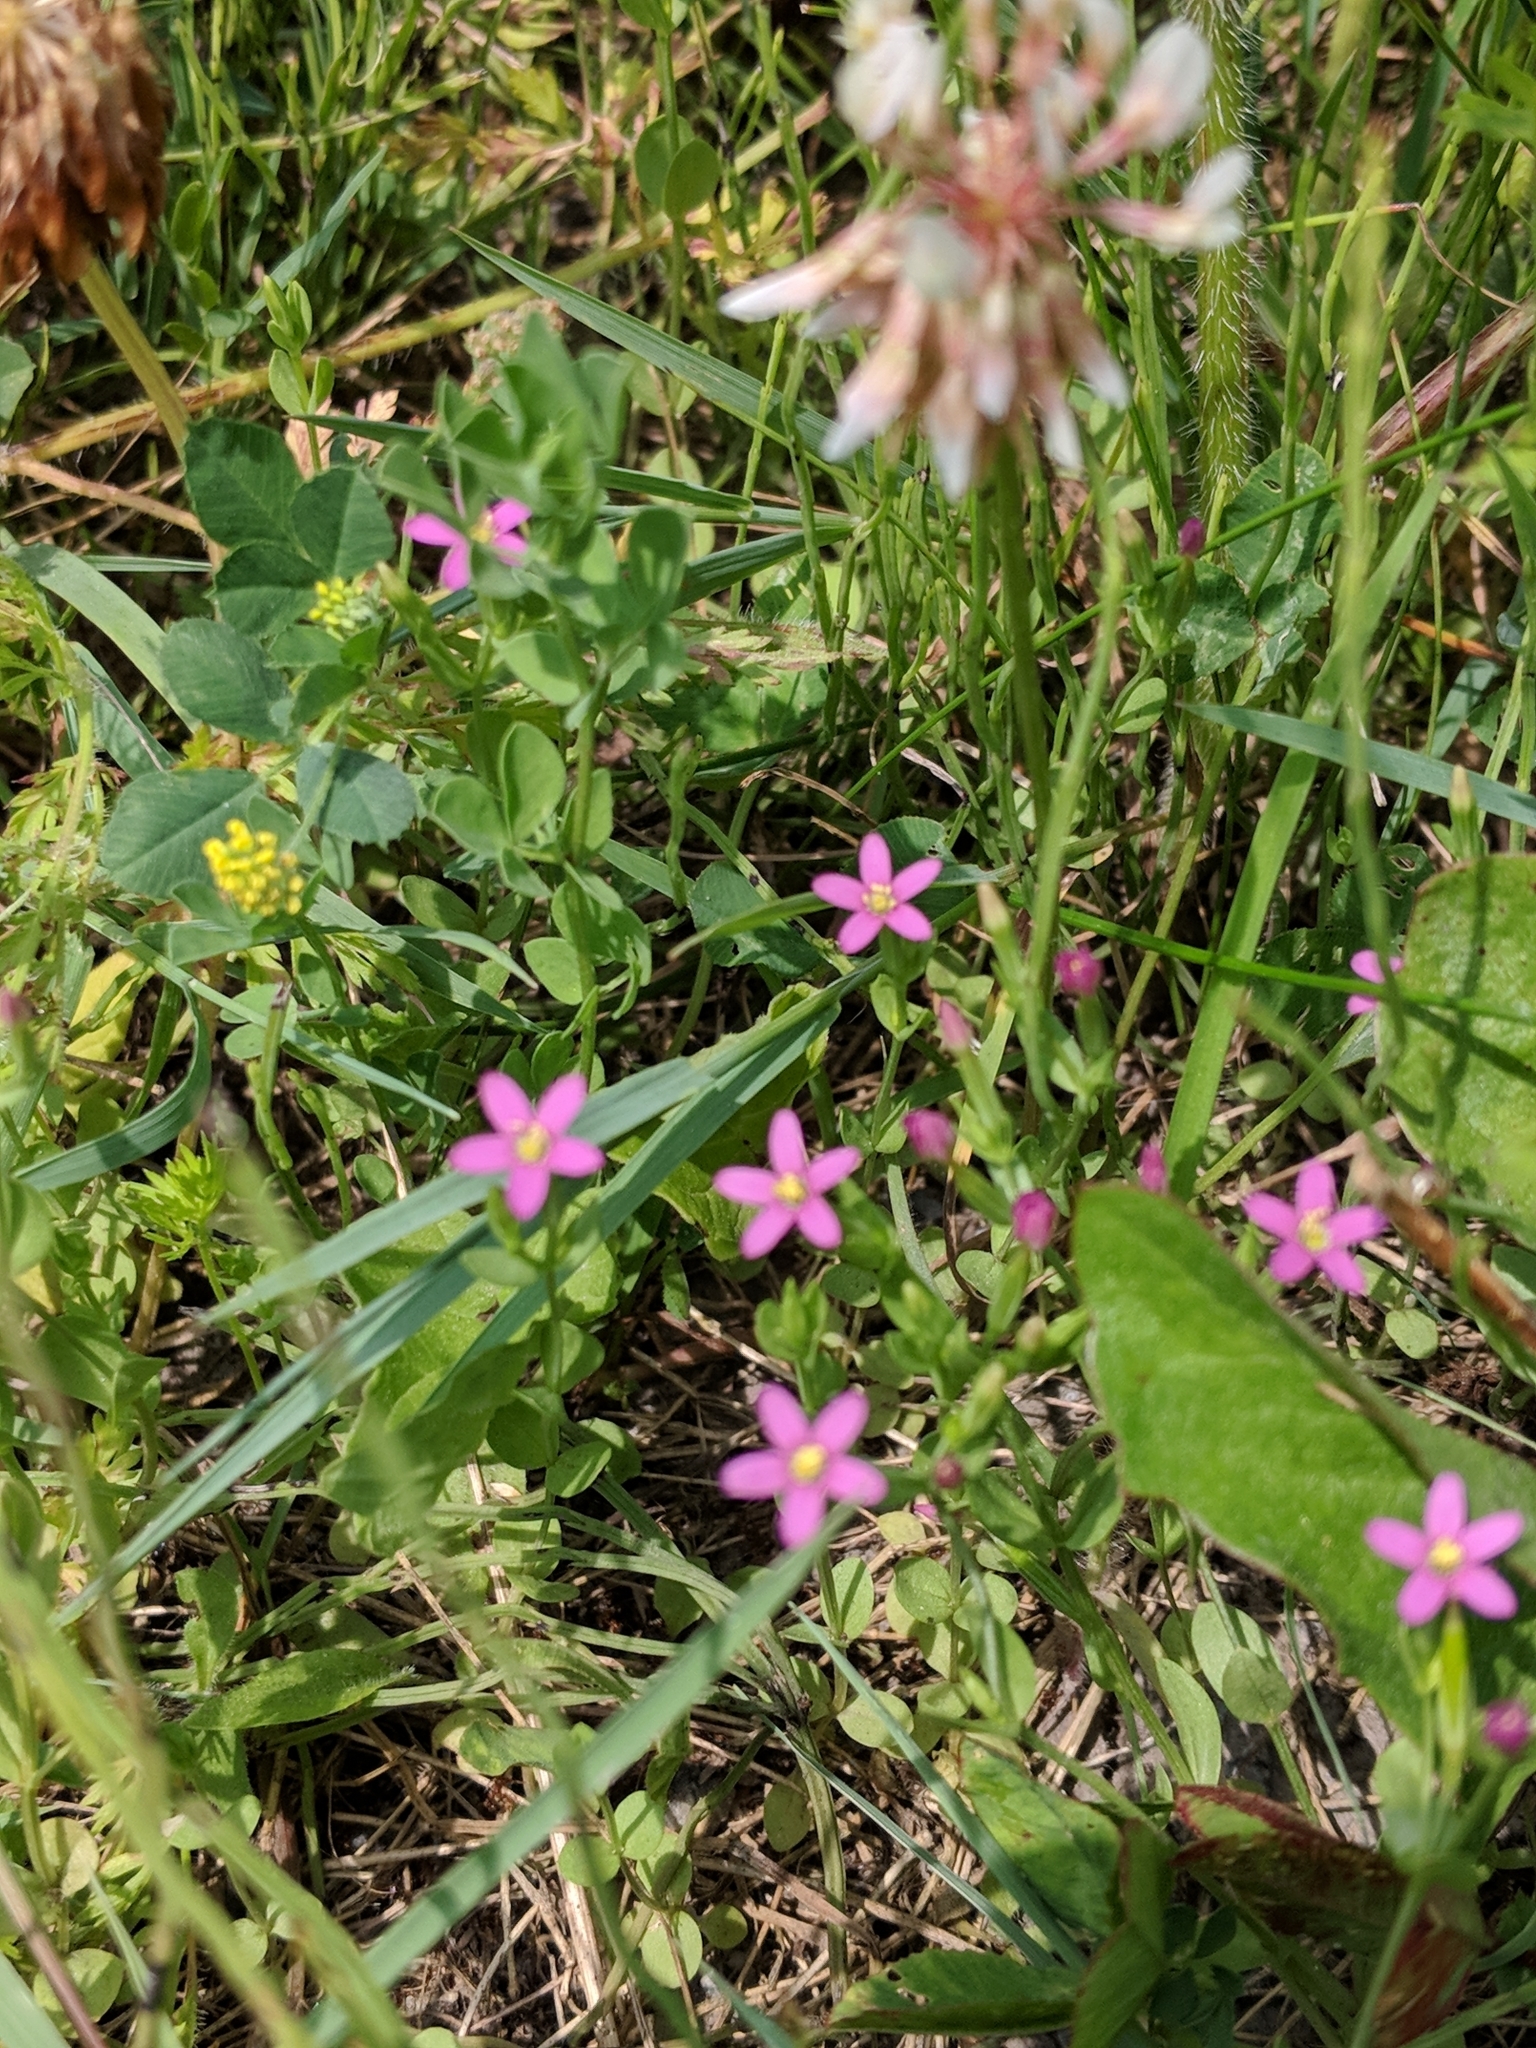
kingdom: Plantae
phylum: Tracheophyta
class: Magnoliopsida
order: Gentianales
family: Gentianaceae
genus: Centaurium
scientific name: Centaurium pulchellum
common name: Lesser centaury
